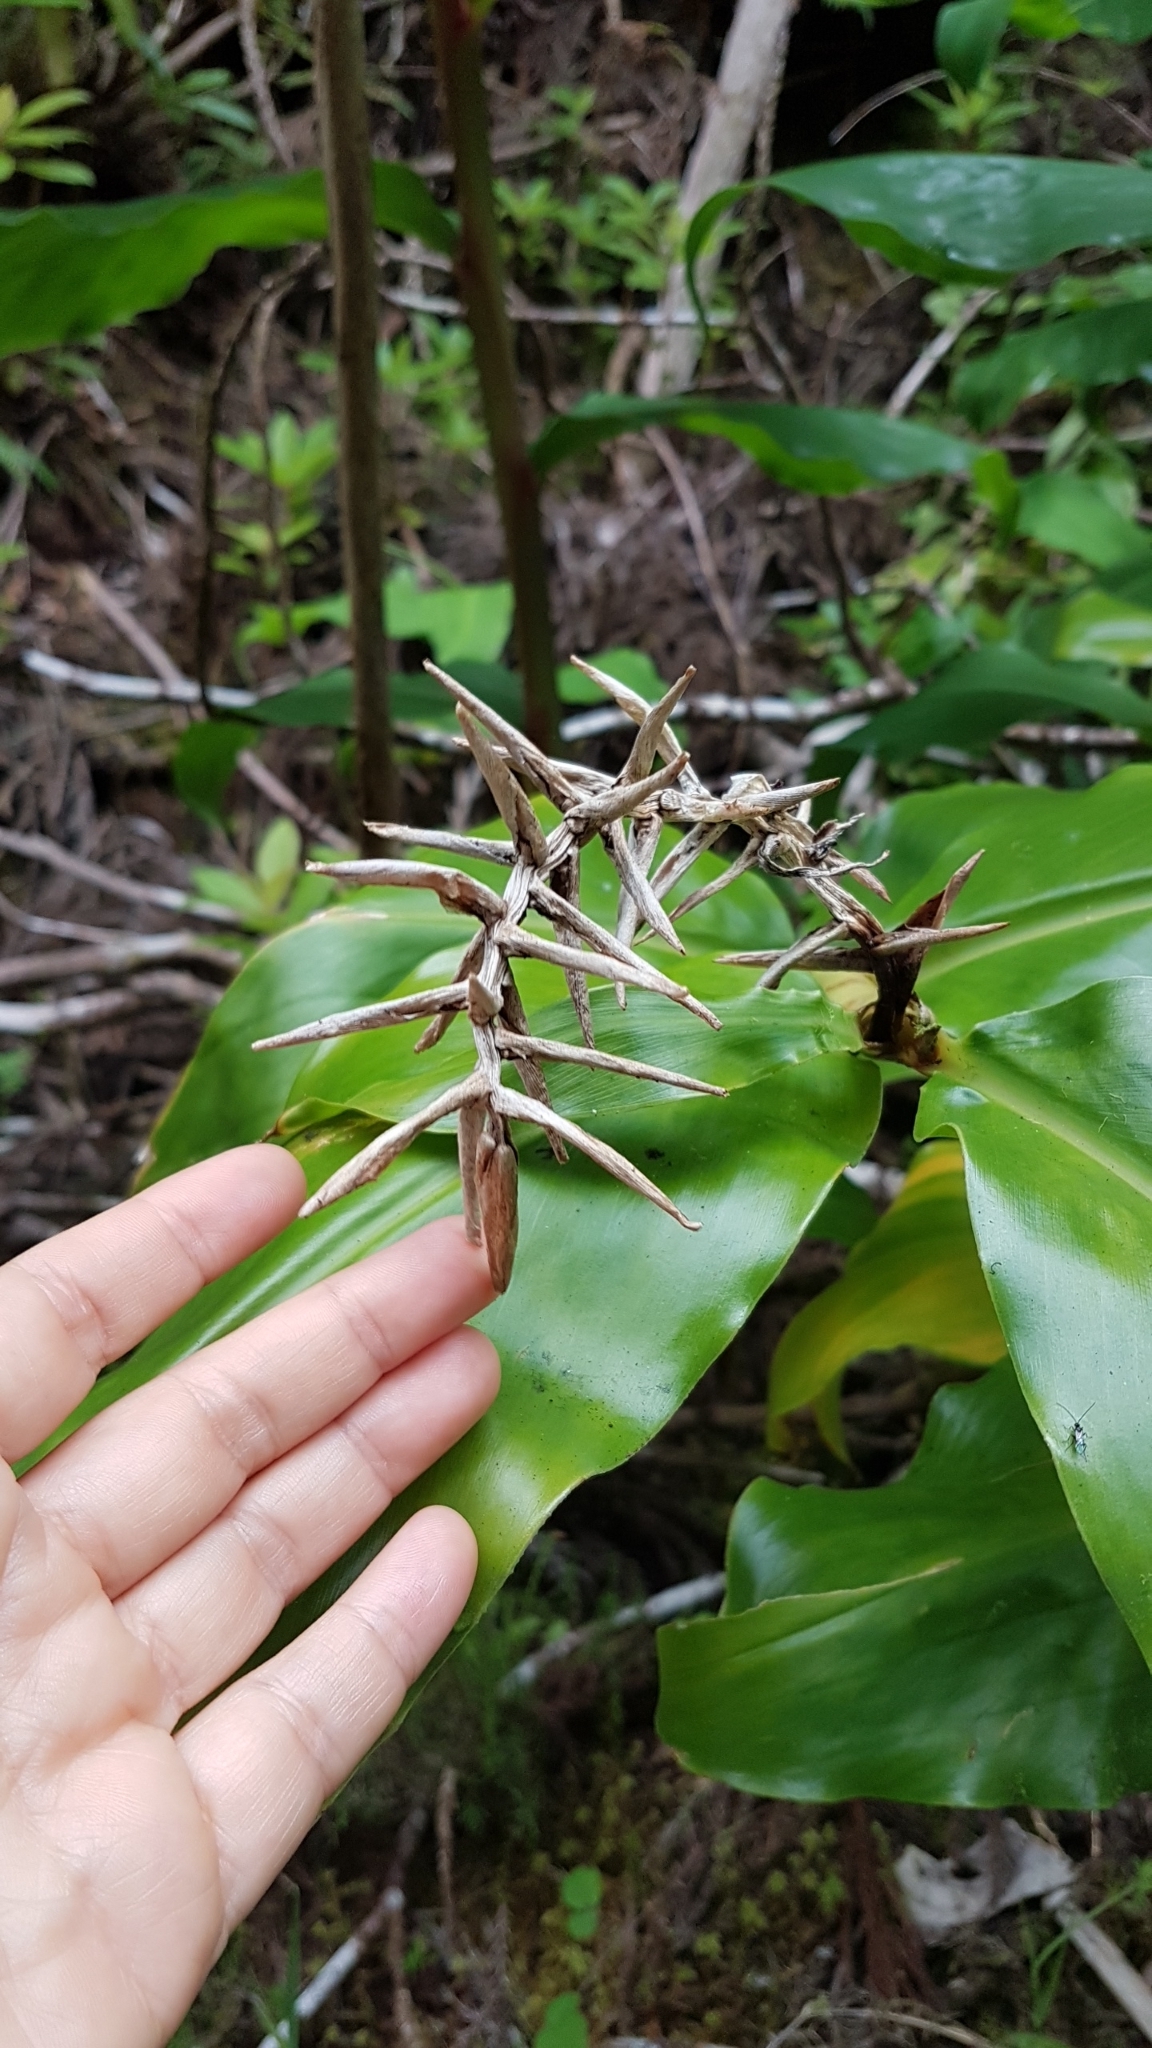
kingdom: Plantae
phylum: Tracheophyta
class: Liliopsida
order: Zingiberales
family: Zingiberaceae
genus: Hedychium
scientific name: Hedychium gardnerianum
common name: Himalayan ginger
